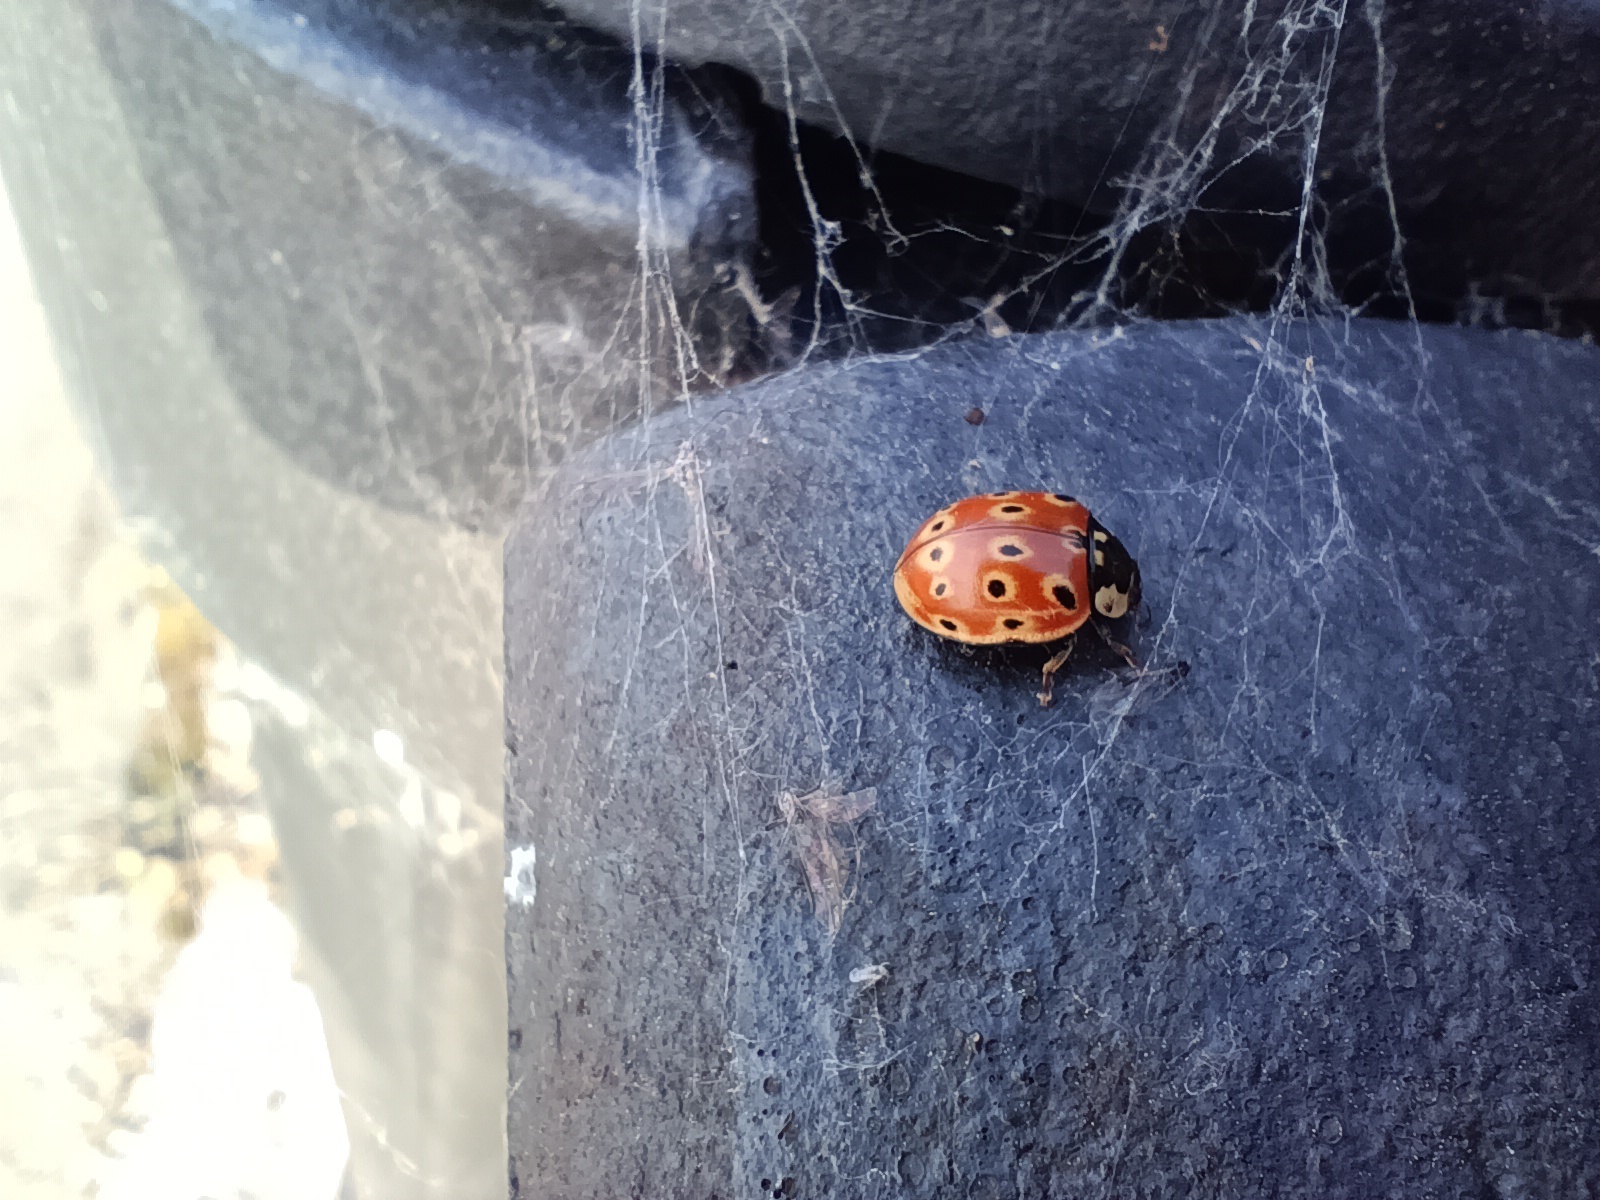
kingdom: Animalia
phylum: Arthropoda
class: Insecta
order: Coleoptera
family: Coccinellidae
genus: Anatis
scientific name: Anatis ocellata
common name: Eyed ladybird
